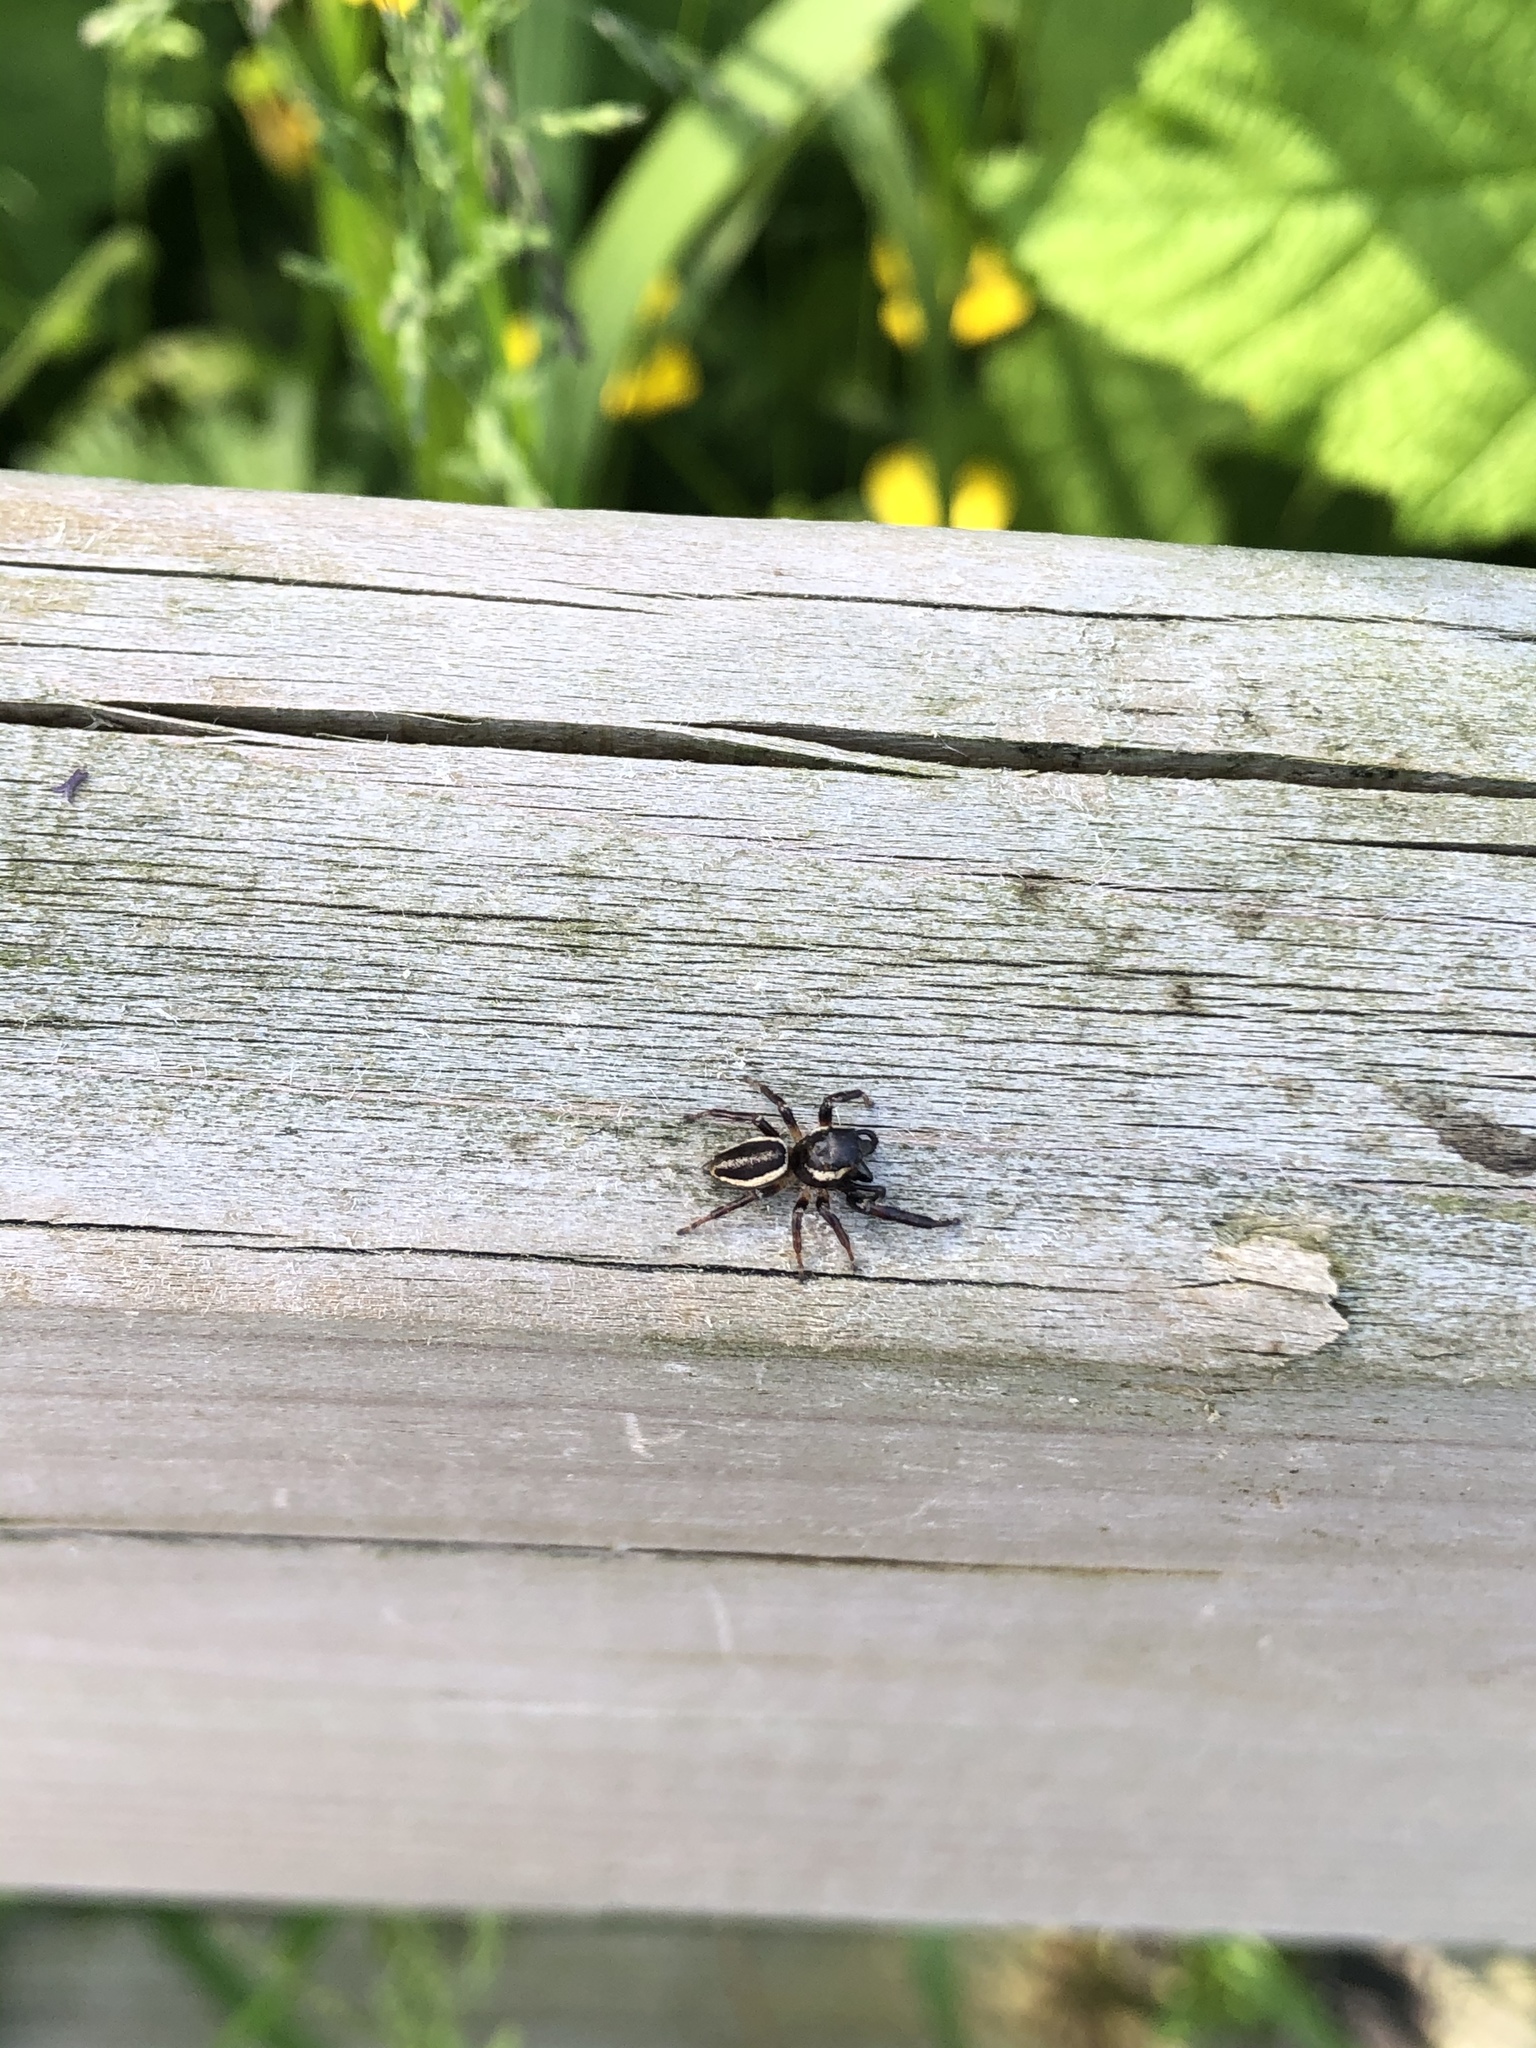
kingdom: Animalia
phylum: Arthropoda
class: Arachnida
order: Araneae
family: Salticidae
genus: Eris
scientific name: Eris militaris
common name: Bronze jumper
